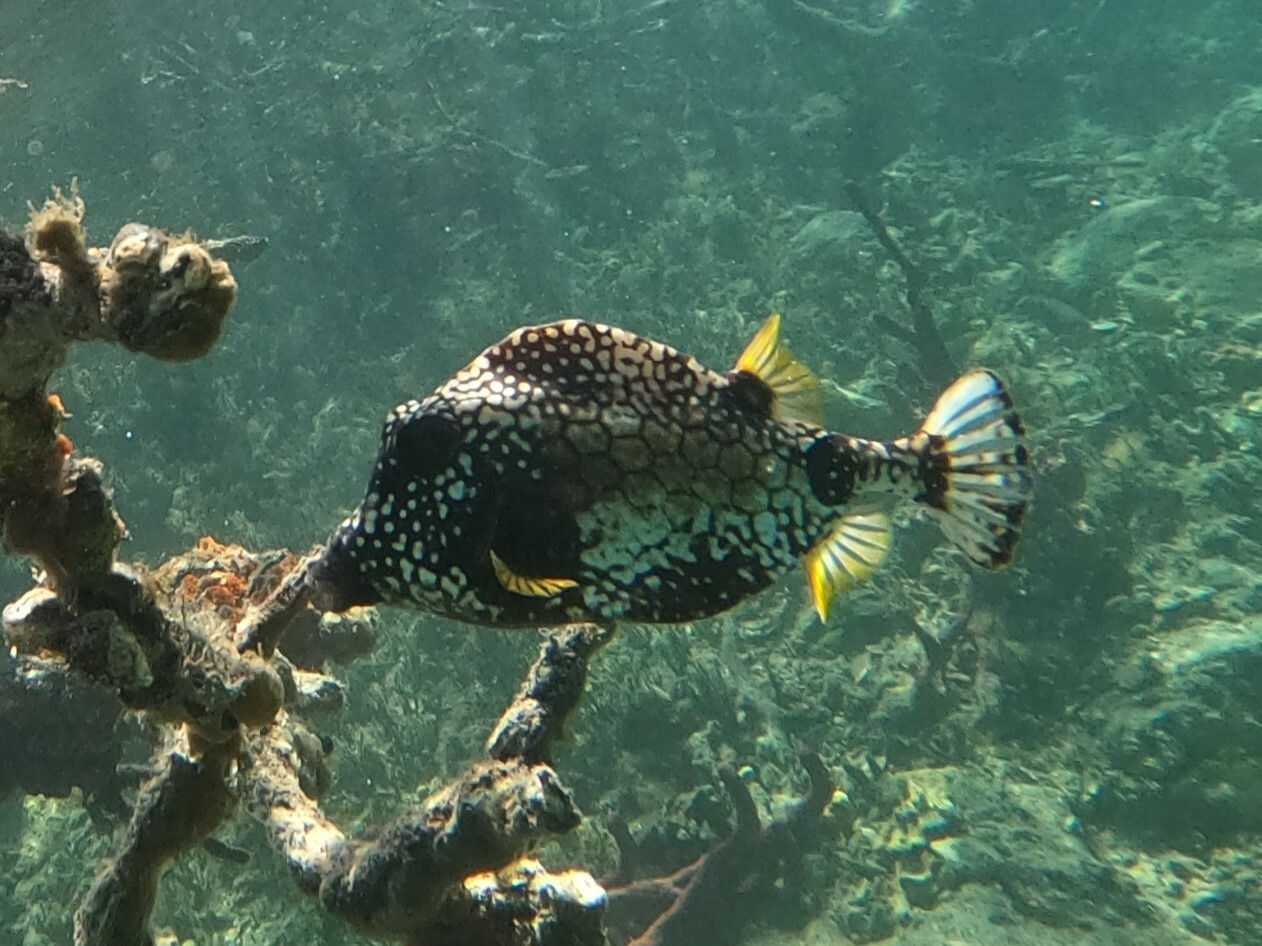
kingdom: Animalia
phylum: Chordata
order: Tetraodontiformes
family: Ostraciidae
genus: Lactophrys
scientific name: Lactophrys triqueter
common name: Smooth trunkfish
